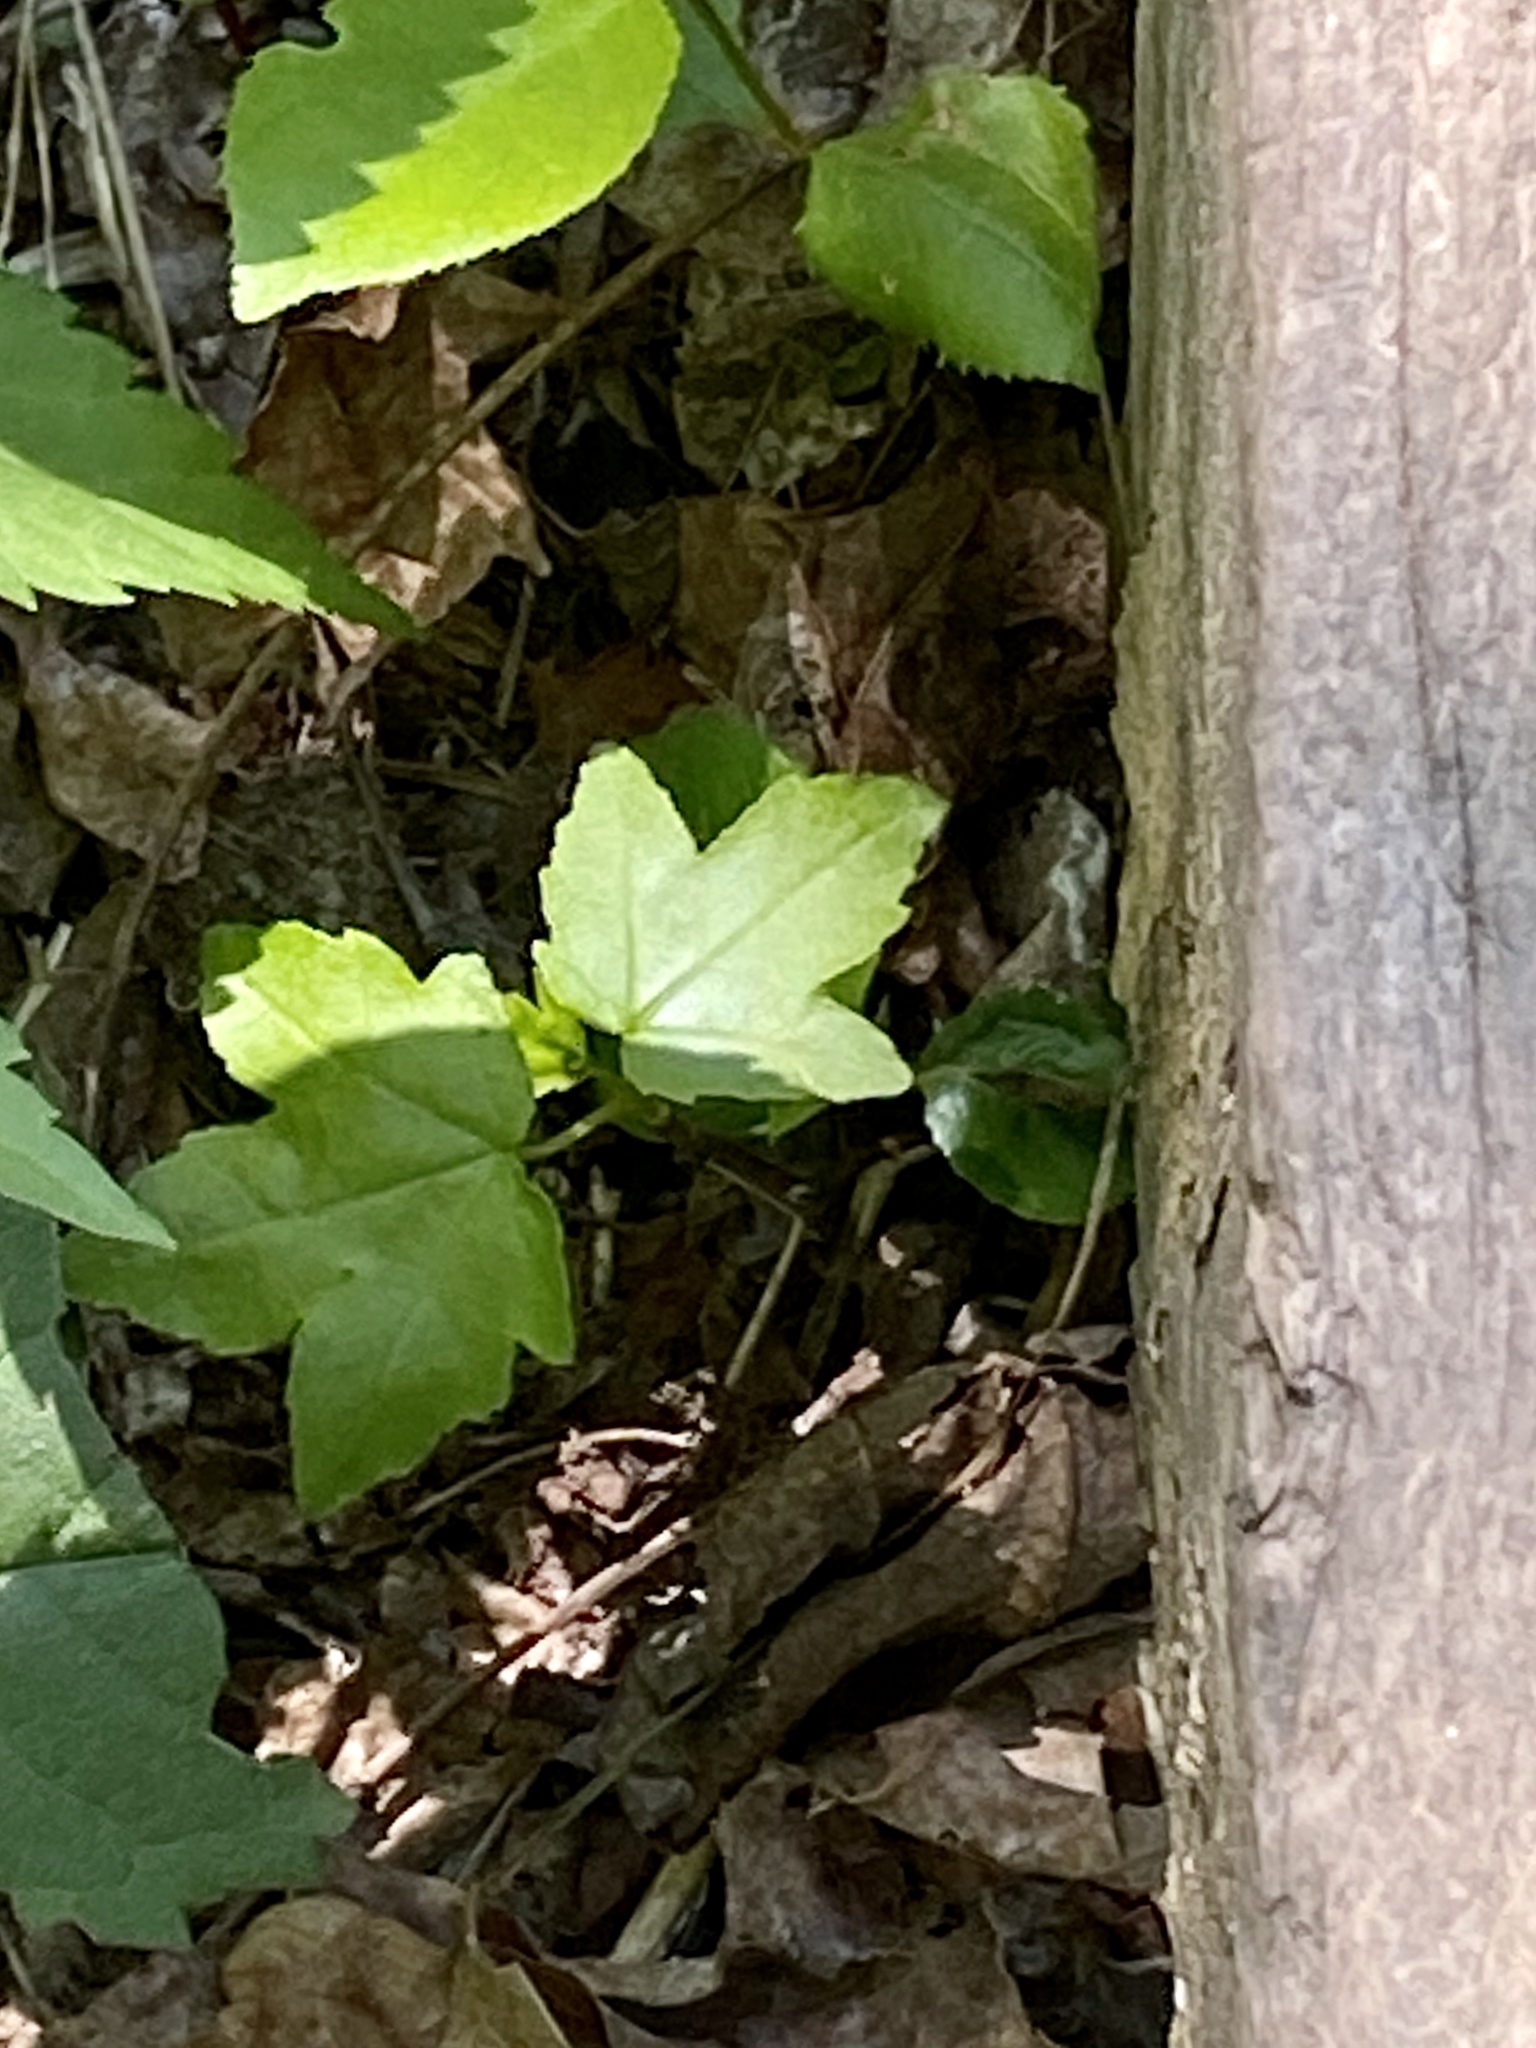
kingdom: Plantae
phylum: Tracheophyta
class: Magnoliopsida
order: Saxifragales
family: Altingiaceae
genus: Liquidambar
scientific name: Liquidambar styraciflua
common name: Sweet gum
